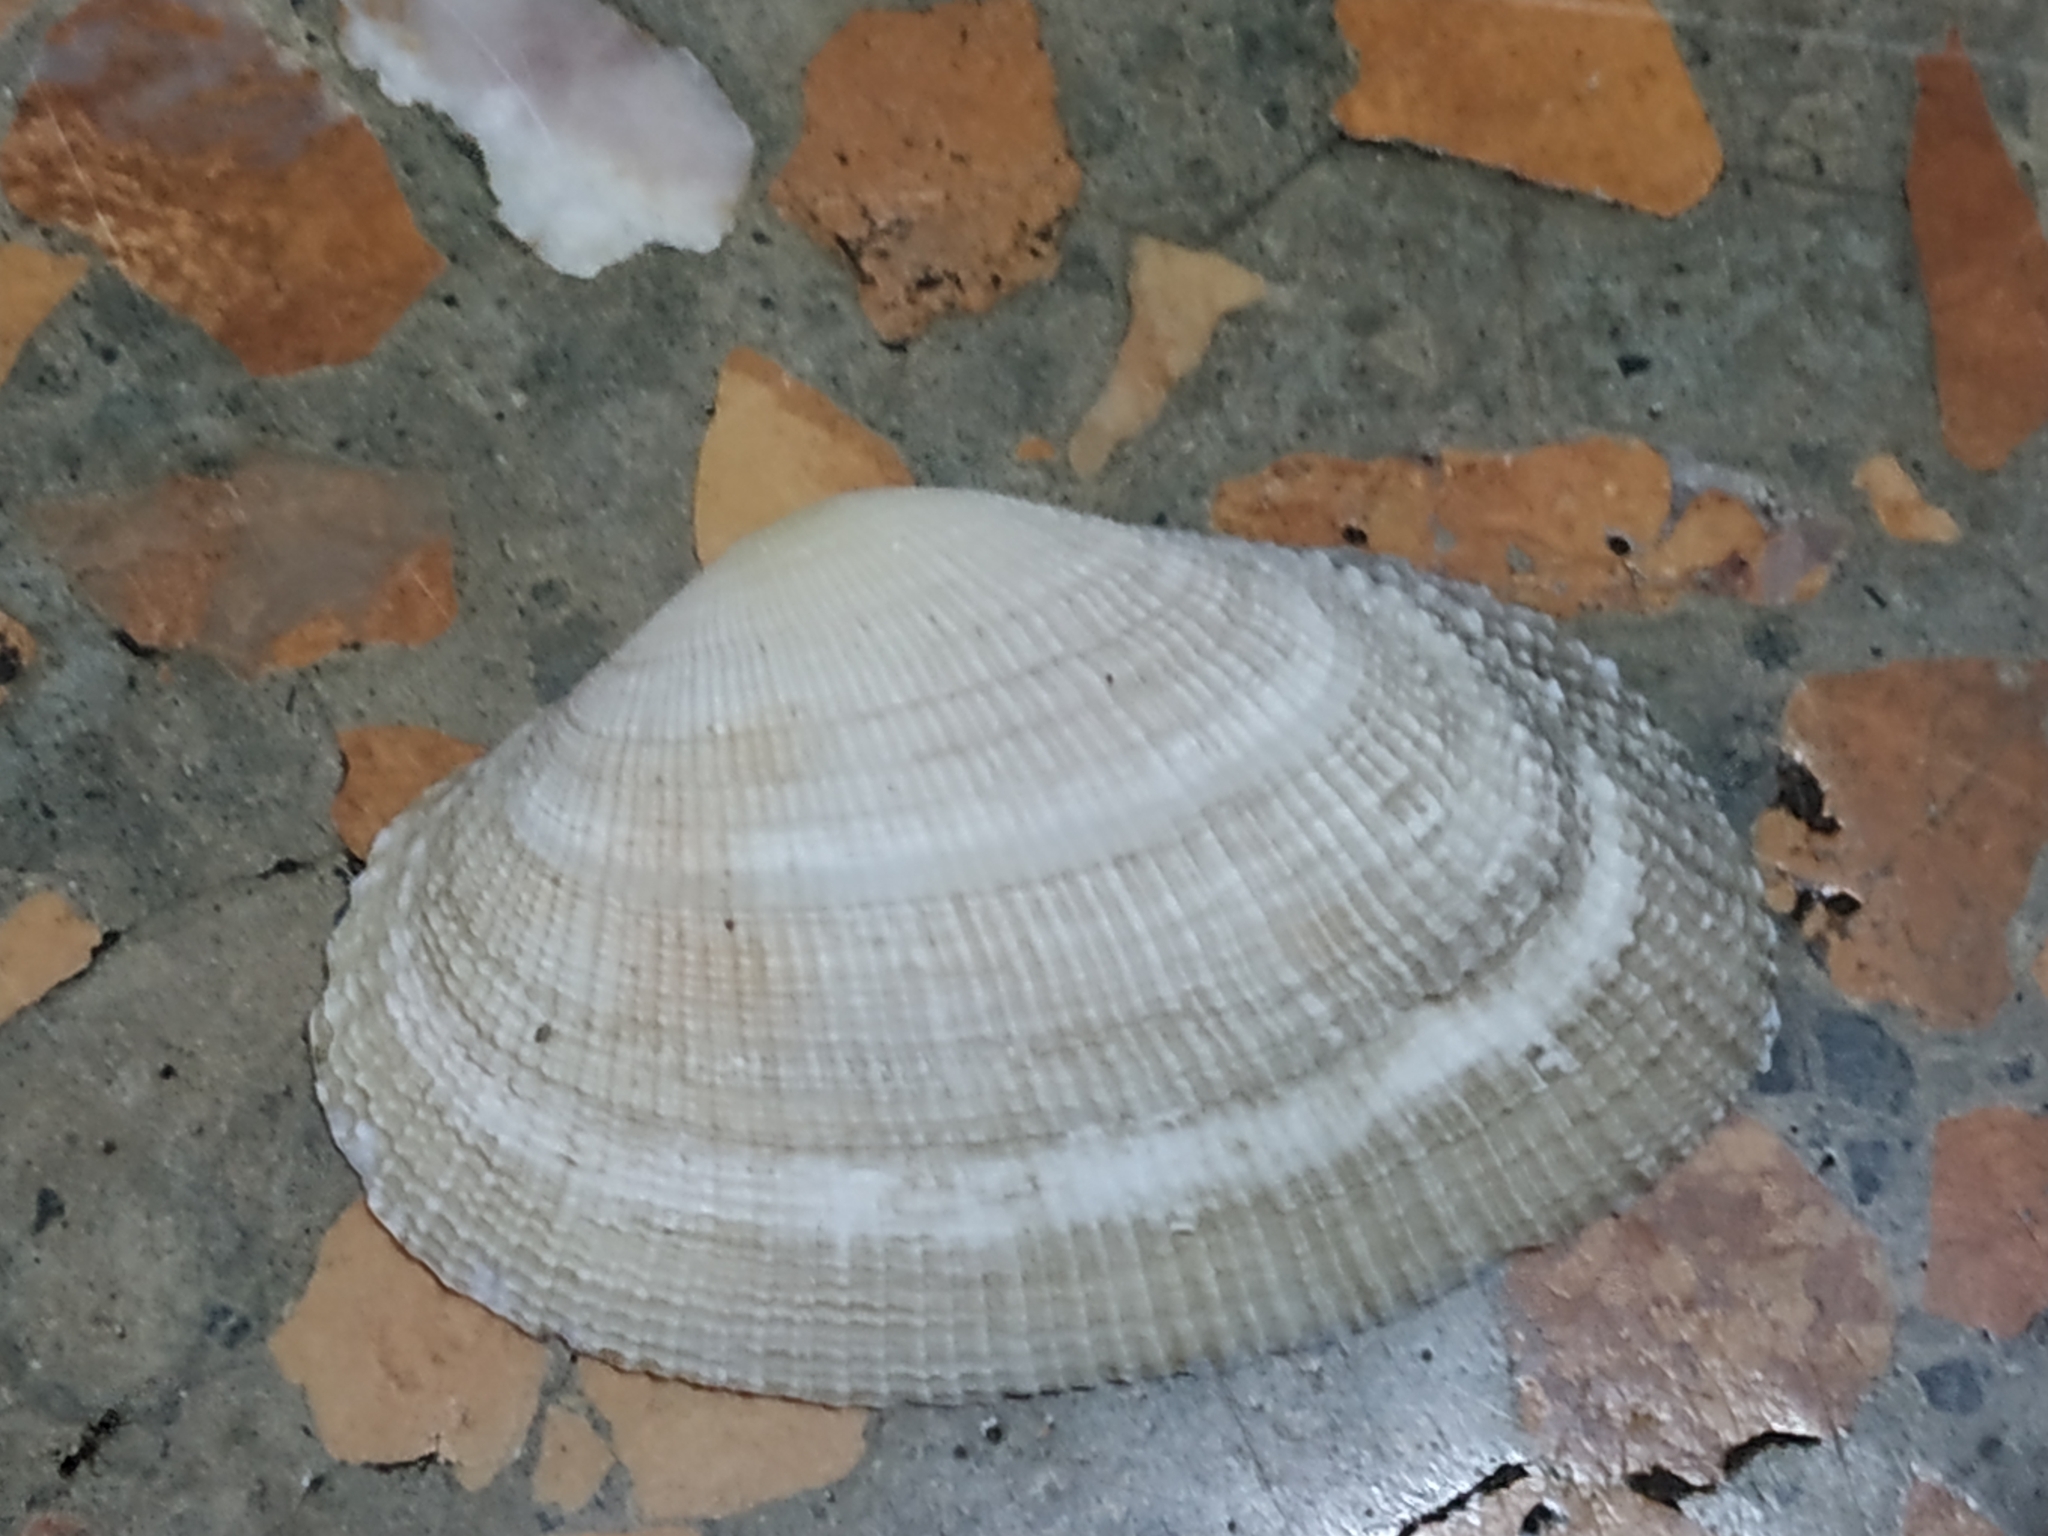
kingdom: Animalia
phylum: Mollusca
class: Bivalvia
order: Cardiida
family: Psammobiidae
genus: Asaphis
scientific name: Asaphis violascens
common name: Pacific asaphis
